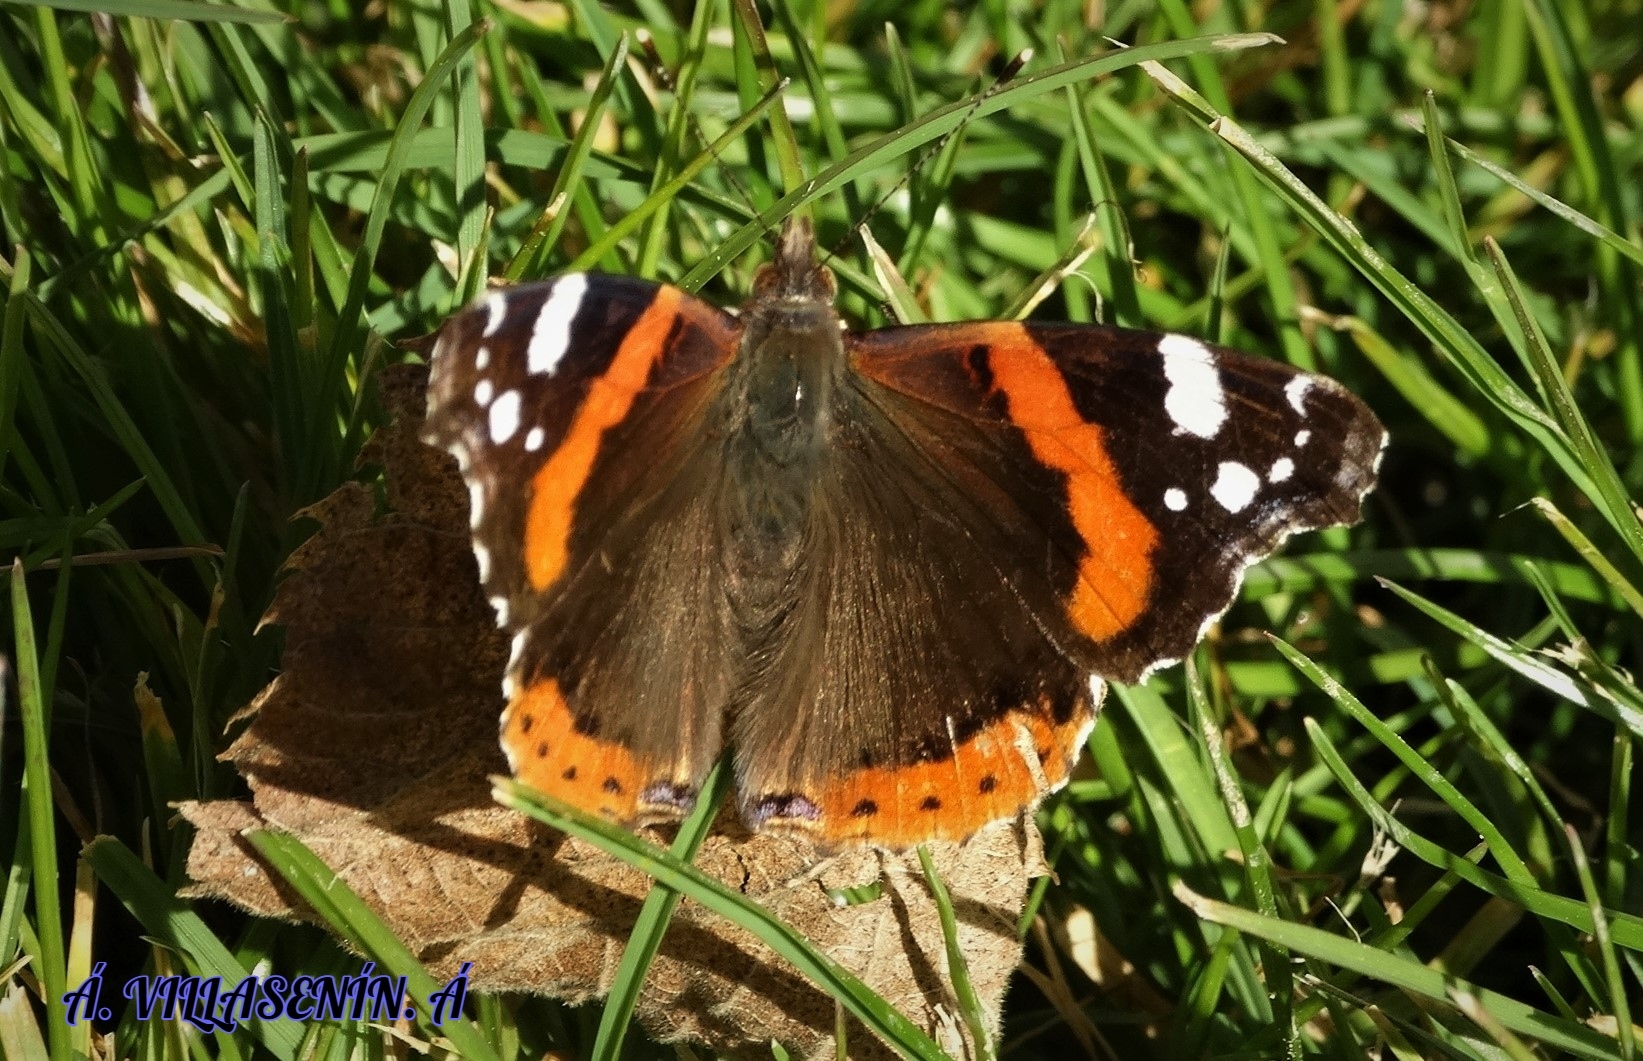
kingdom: Animalia
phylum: Arthropoda
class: Insecta
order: Lepidoptera
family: Nymphalidae
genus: Vanessa
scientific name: Vanessa atalanta
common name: Red admiral
